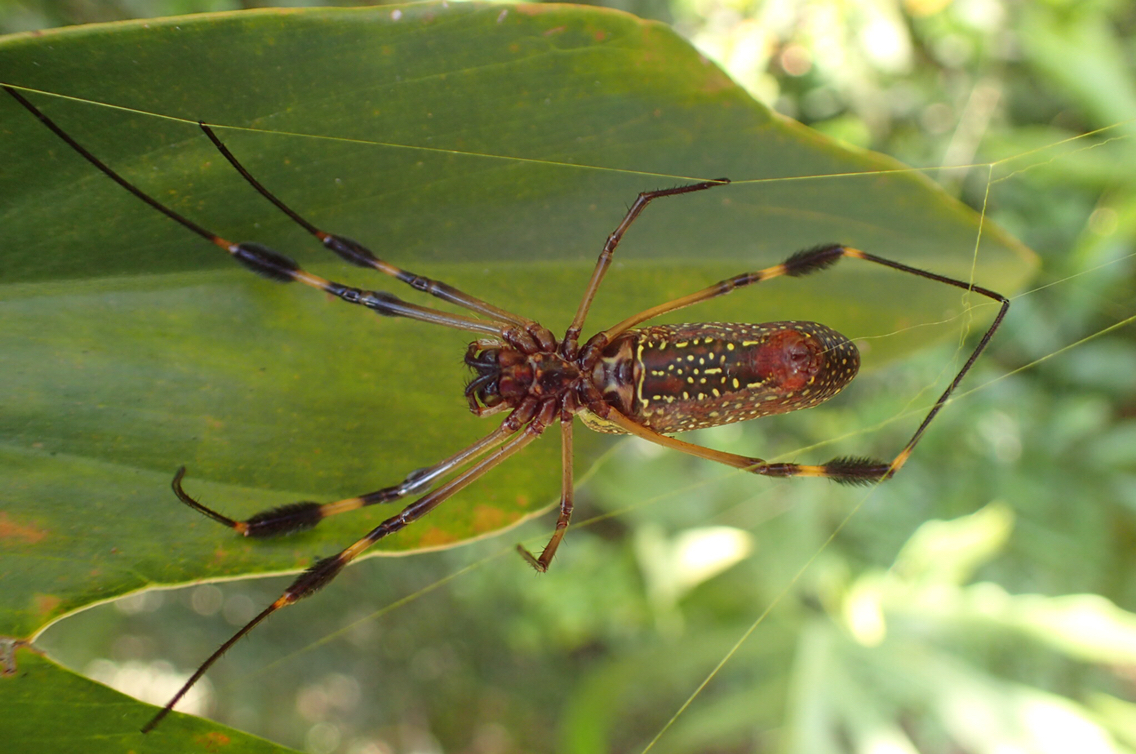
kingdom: Animalia
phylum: Arthropoda
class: Arachnida
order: Araneae
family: Araneidae
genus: Trichonephila
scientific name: Trichonephila clavipes
